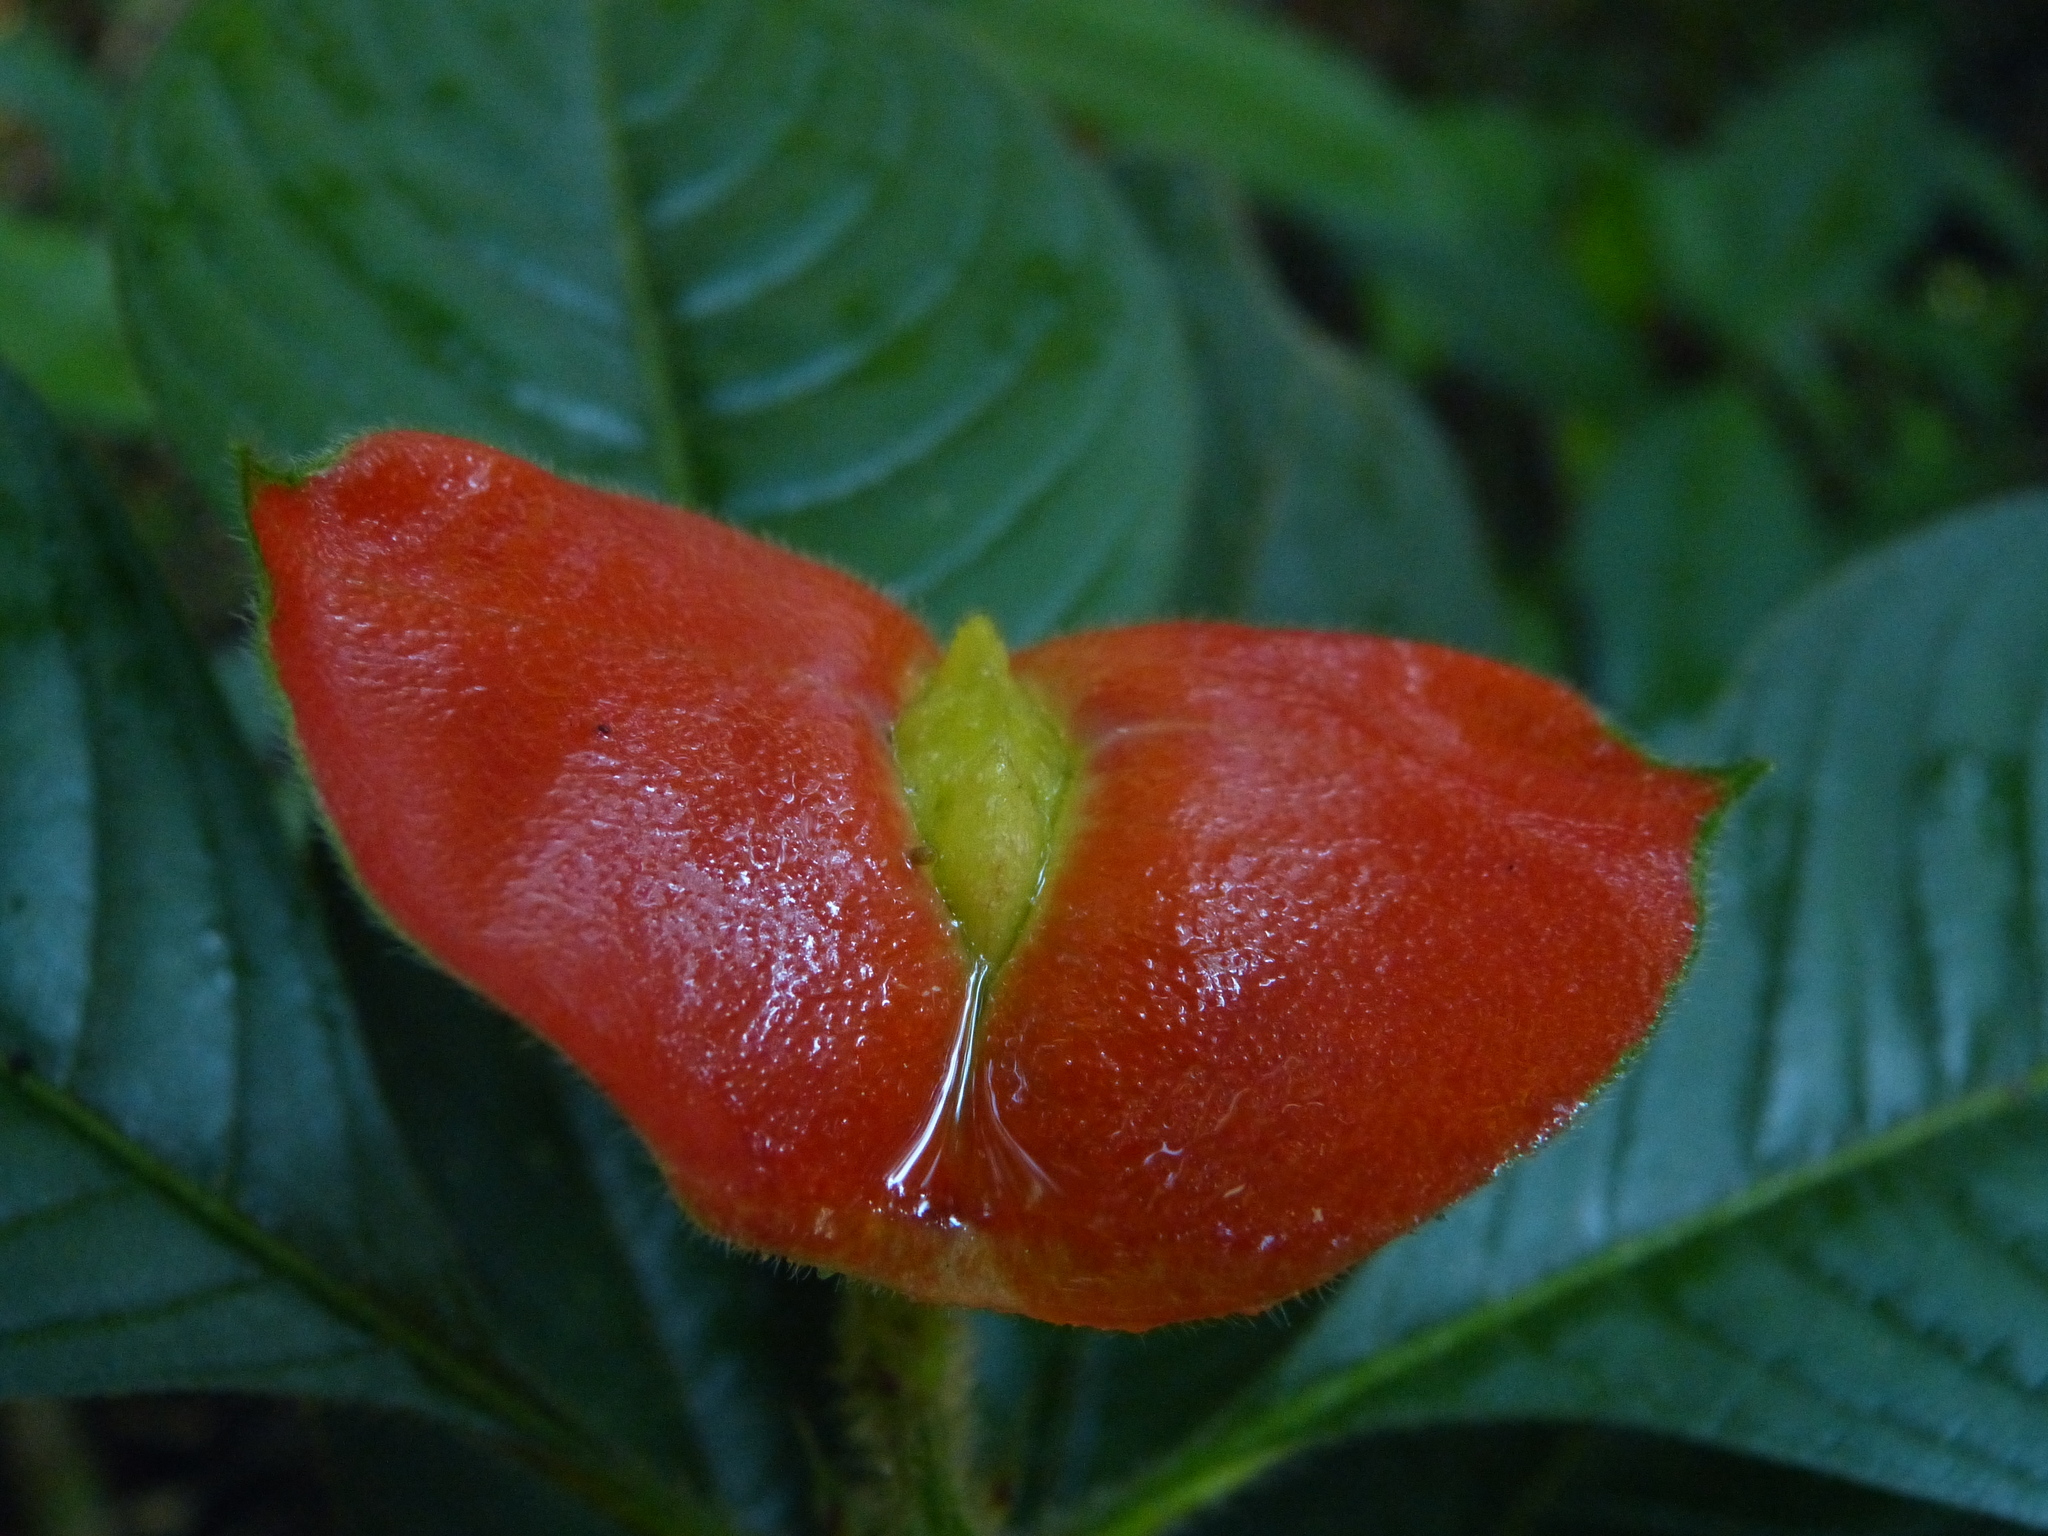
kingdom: Plantae
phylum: Tracheophyta
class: Magnoliopsida
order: Gentianales
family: Rubiaceae
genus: Palicourea
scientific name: Palicourea tomentosa
